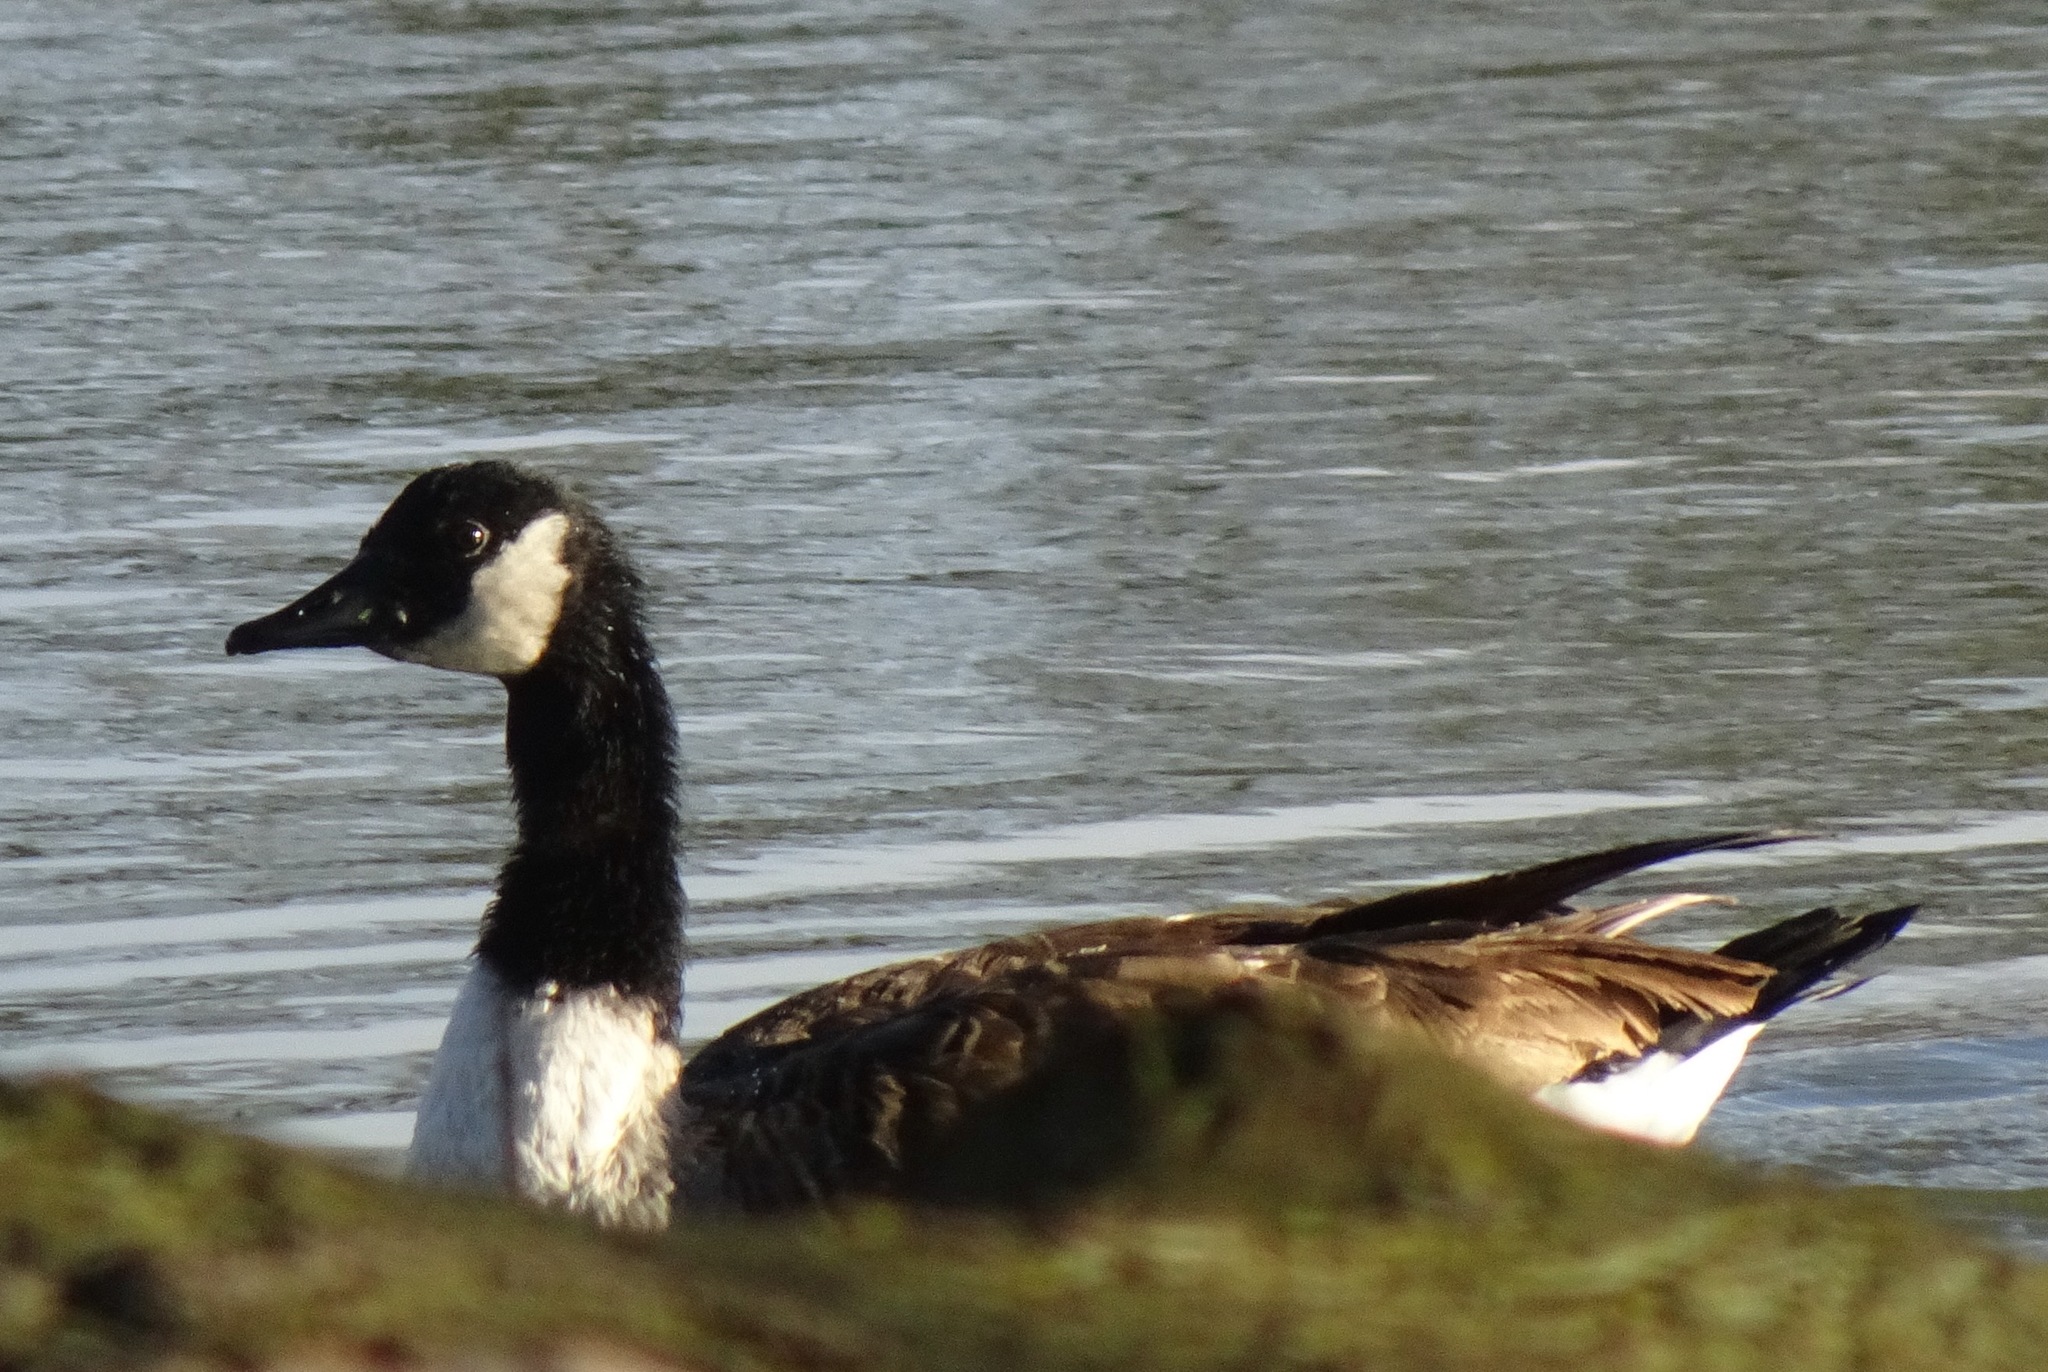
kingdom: Animalia
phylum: Chordata
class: Aves
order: Anseriformes
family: Anatidae
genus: Branta
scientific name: Branta canadensis
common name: Canada goose
